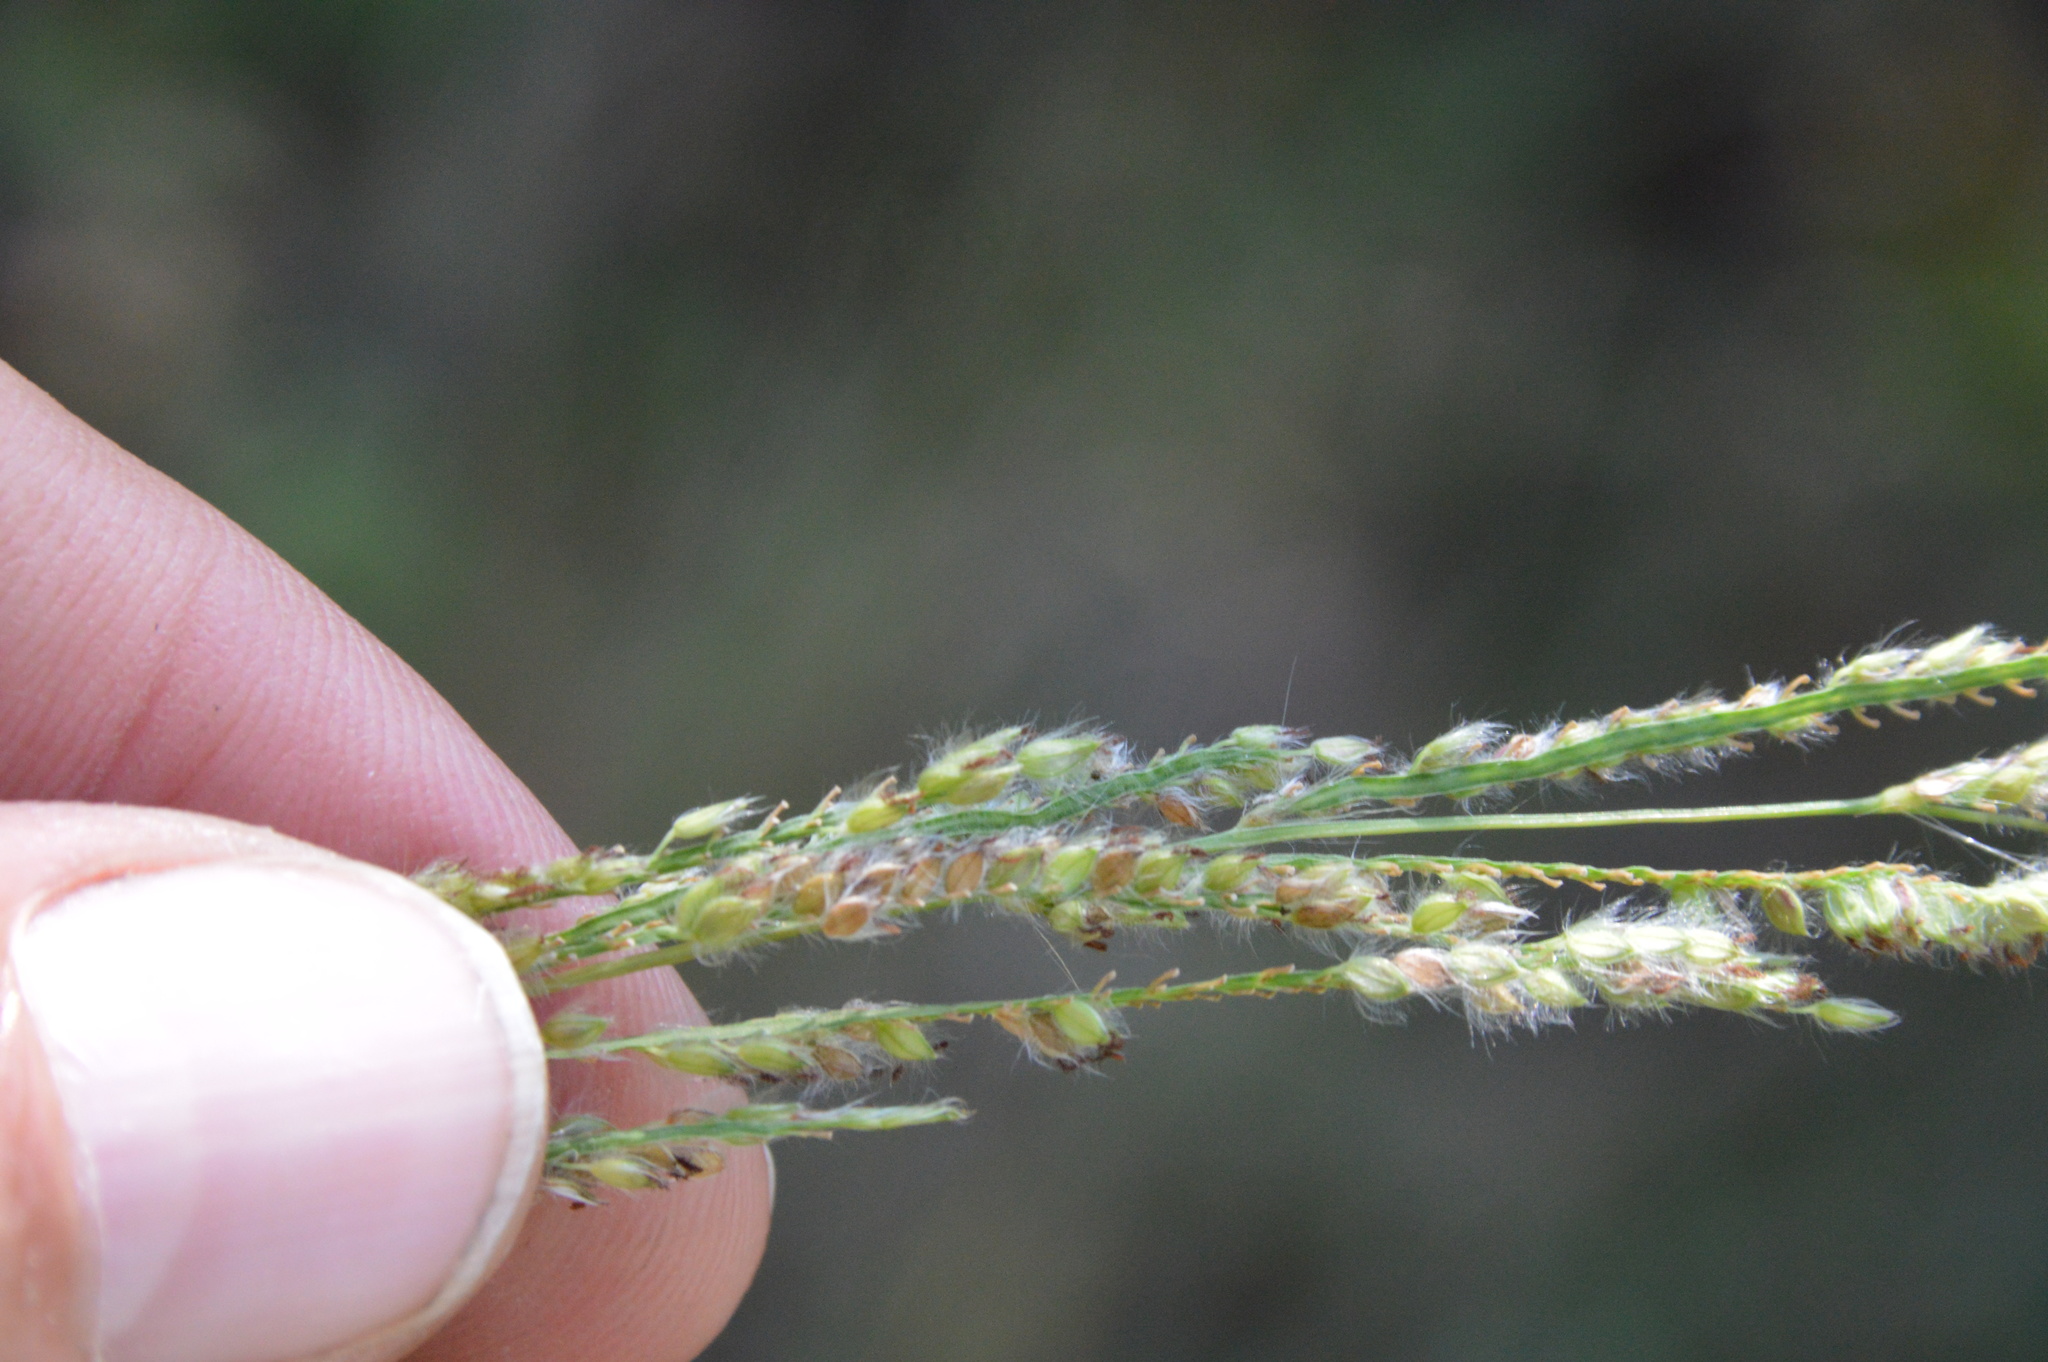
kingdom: Plantae
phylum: Tracheophyta
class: Liliopsida
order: Poales
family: Poaceae
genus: Paspalum
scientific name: Paspalum urvillei
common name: Vasey's grass
